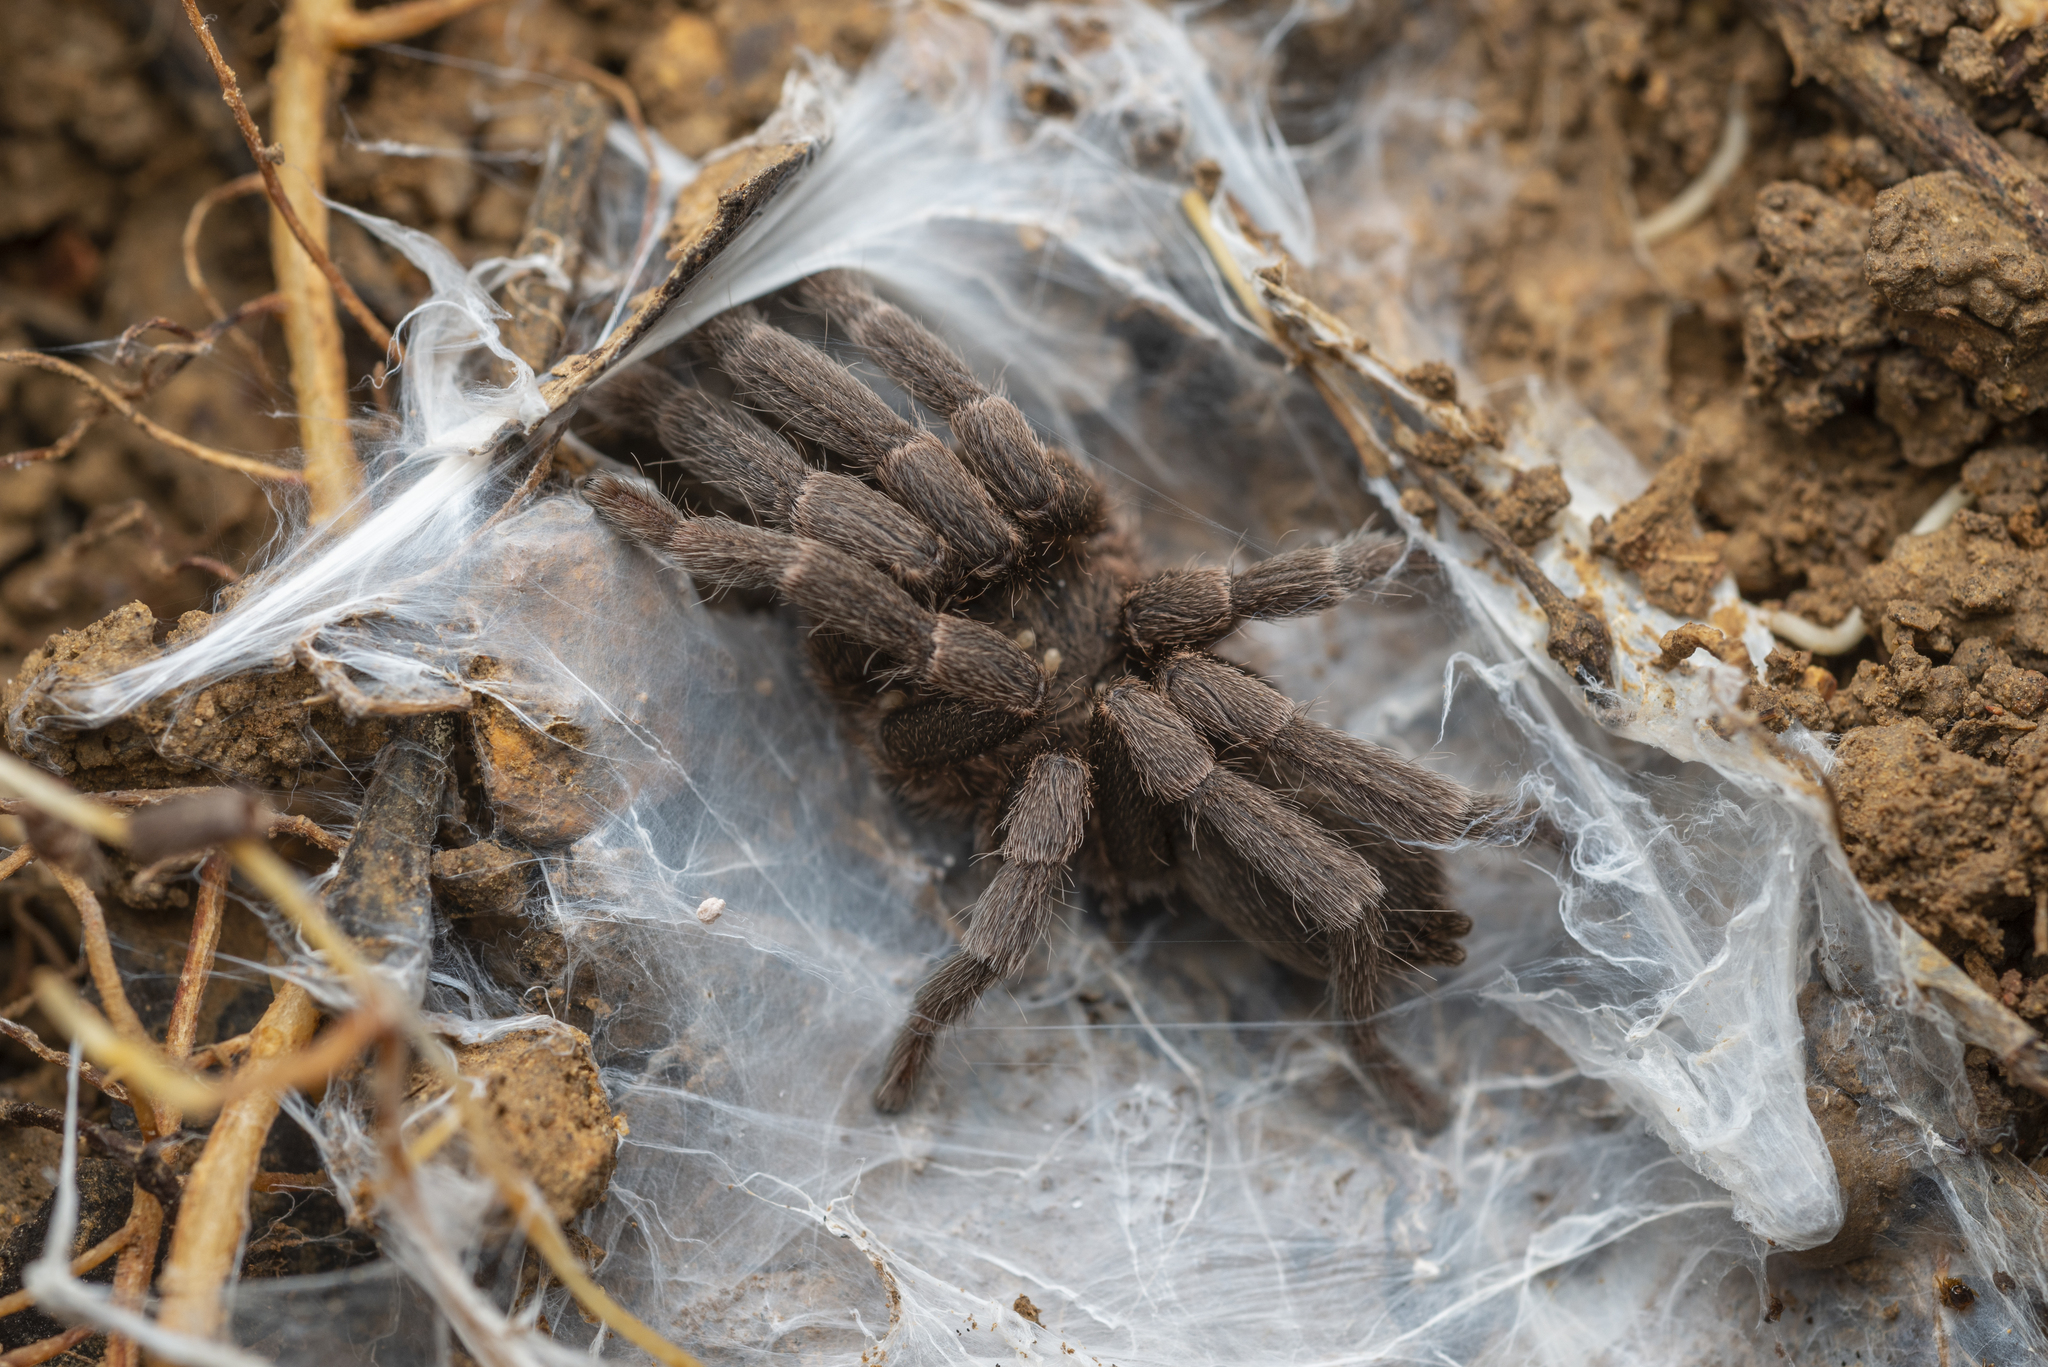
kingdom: Animalia
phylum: Arthropoda
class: Arachnida
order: Araneae
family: Theraphosidae
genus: Phlogiellus
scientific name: Phlogiellus
